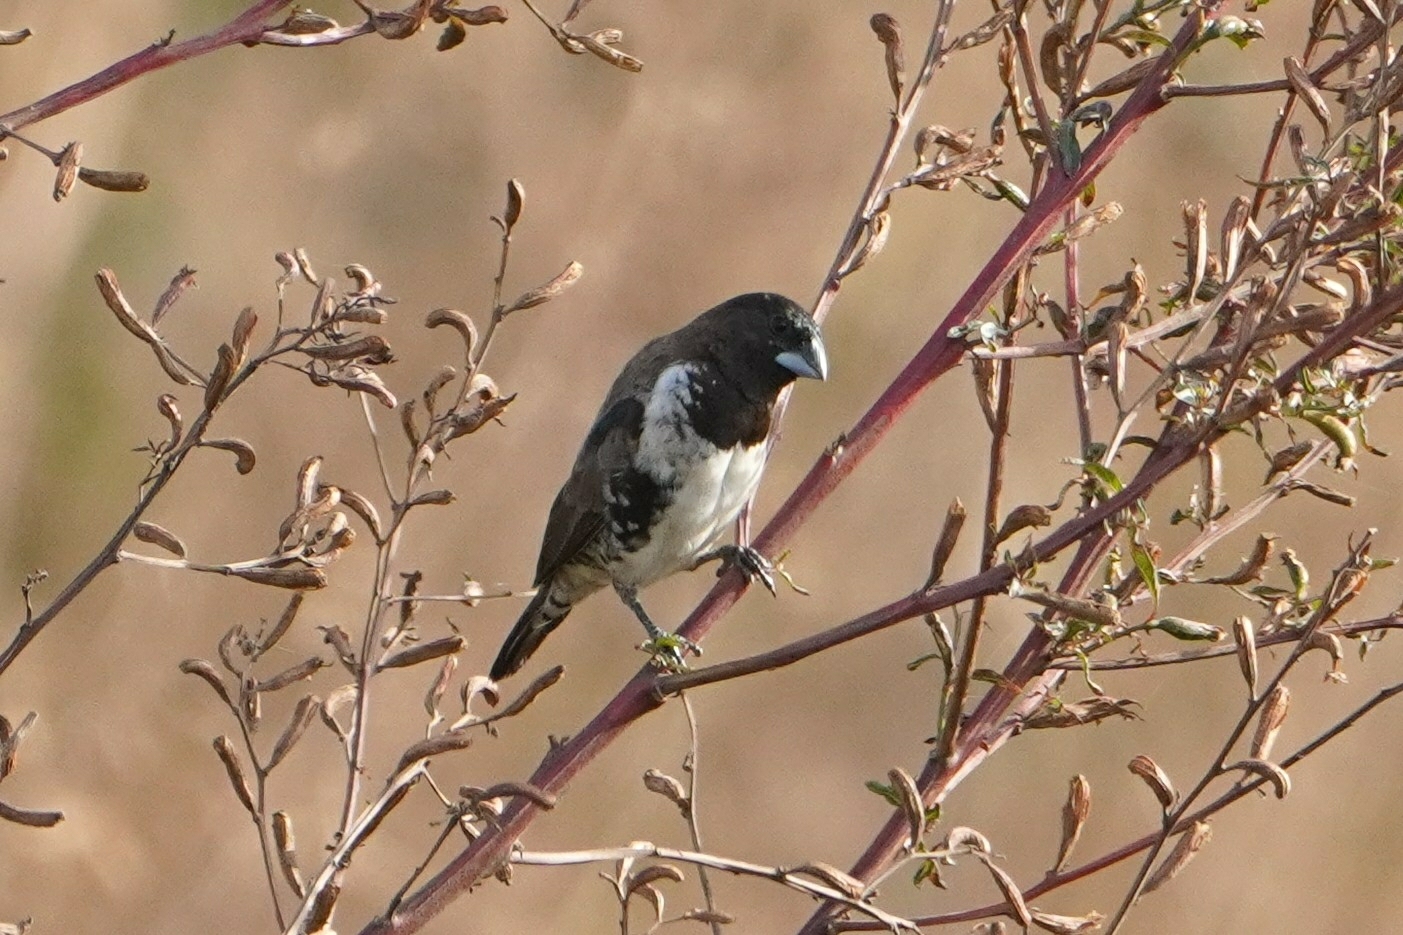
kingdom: Animalia
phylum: Chordata
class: Aves
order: Passeriformes
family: Estrildidae
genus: Lonchura
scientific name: Lonchura cucullata
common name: Bronze mannikin
